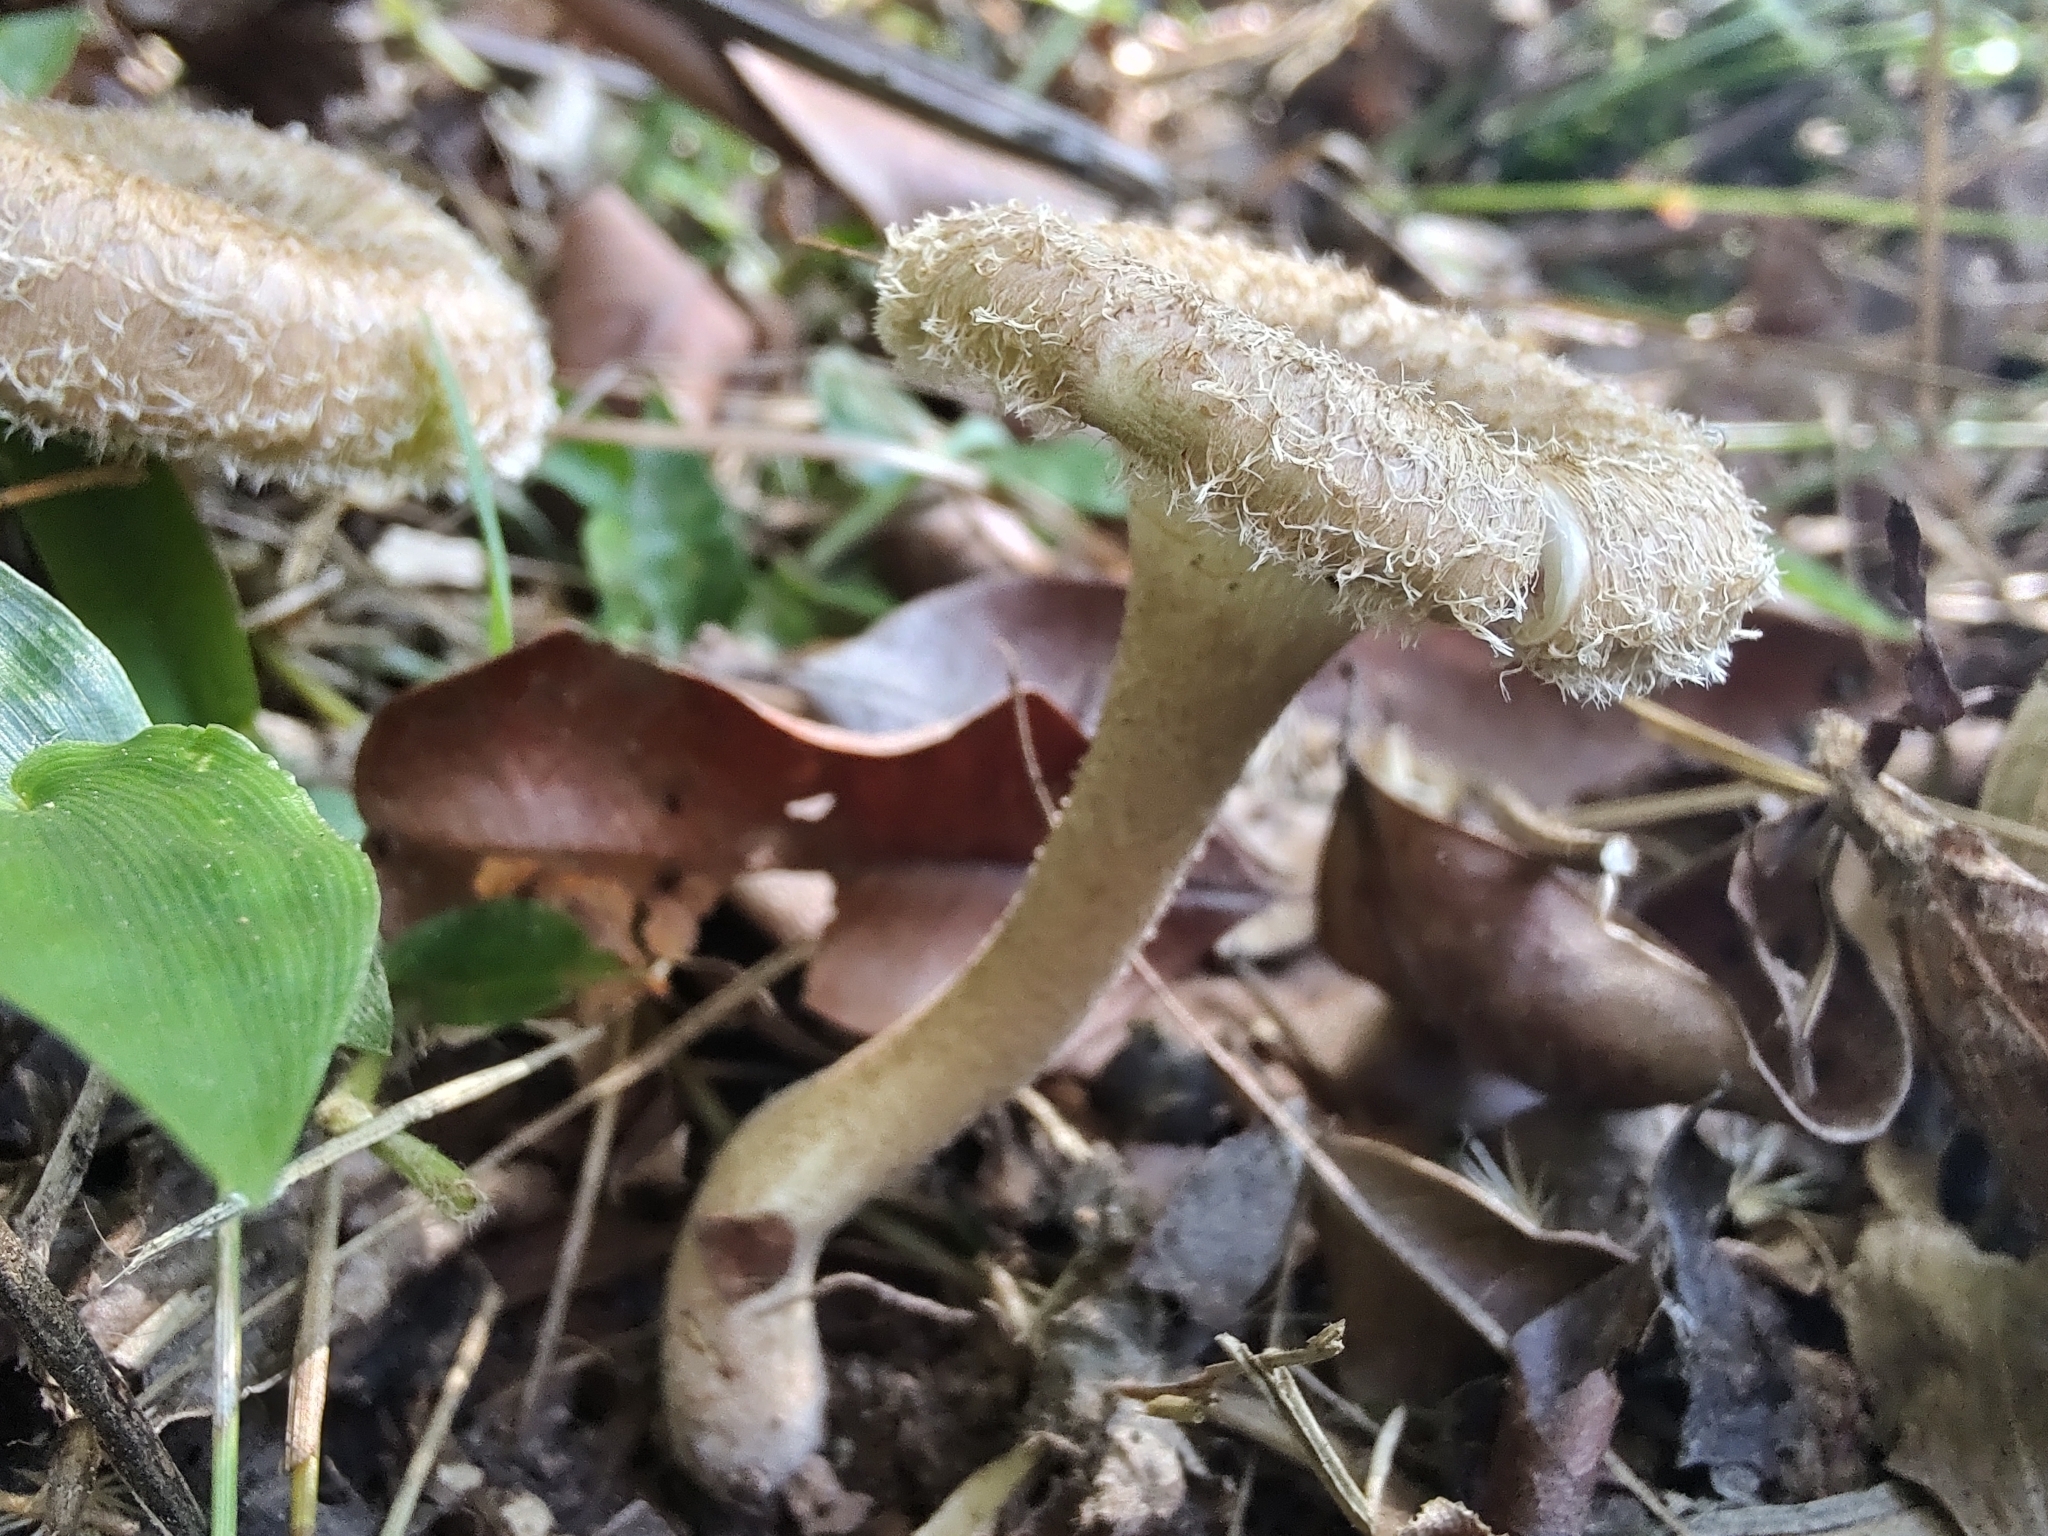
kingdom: Fungi
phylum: Basidiomycota
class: Agaricomycetes
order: Polyporales
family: Polyporaceae
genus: Lentinus
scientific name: Lentinus crinitus
